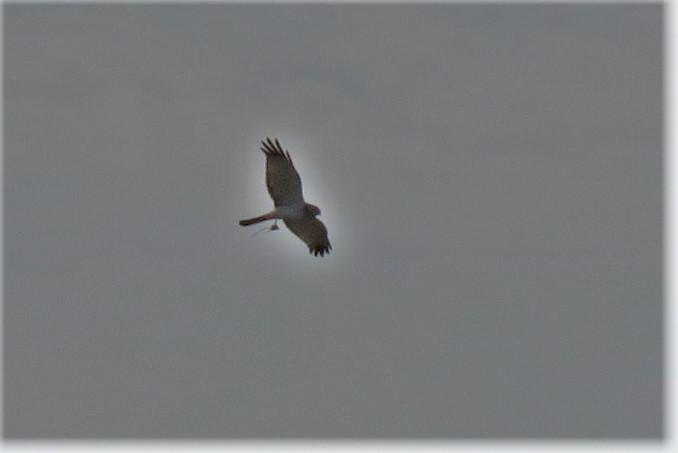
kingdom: Animalia
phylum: Chordata
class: Aves
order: Accipitriformes
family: Accipitridae
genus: Circus
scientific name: Circus cyaneus
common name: Hen harrier
